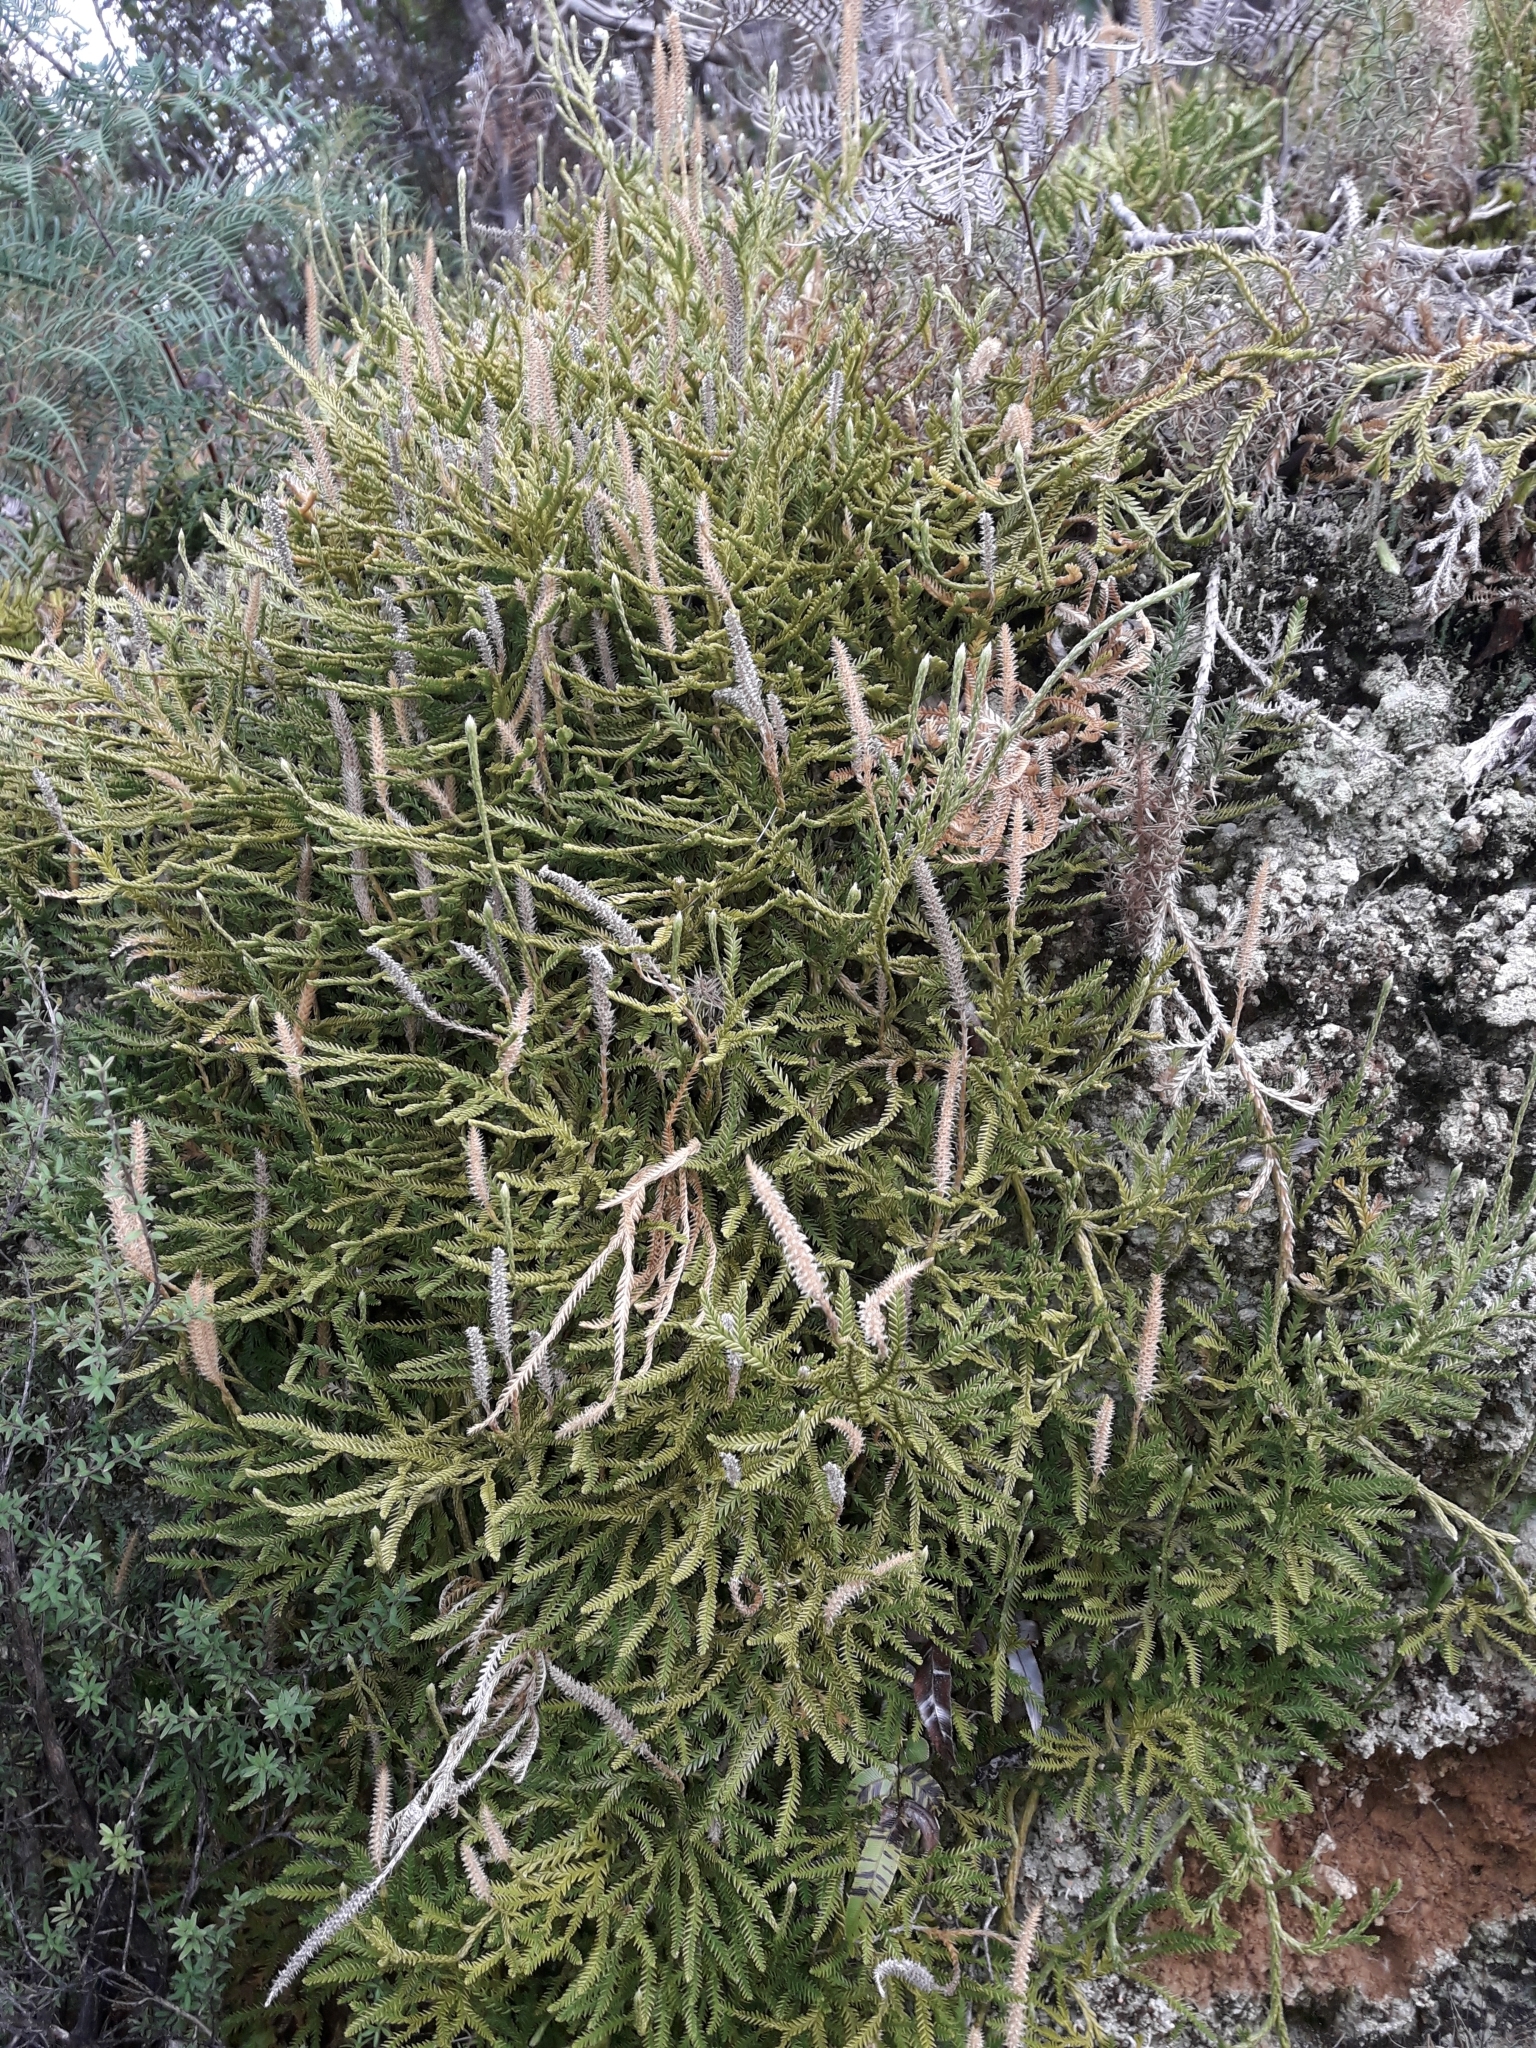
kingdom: Plantae
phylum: Tracheophyta
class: Lycopodiopsida
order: Lycopodiales
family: Lycopodiaceae
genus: Diphasium
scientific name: Diphasium scariosum
